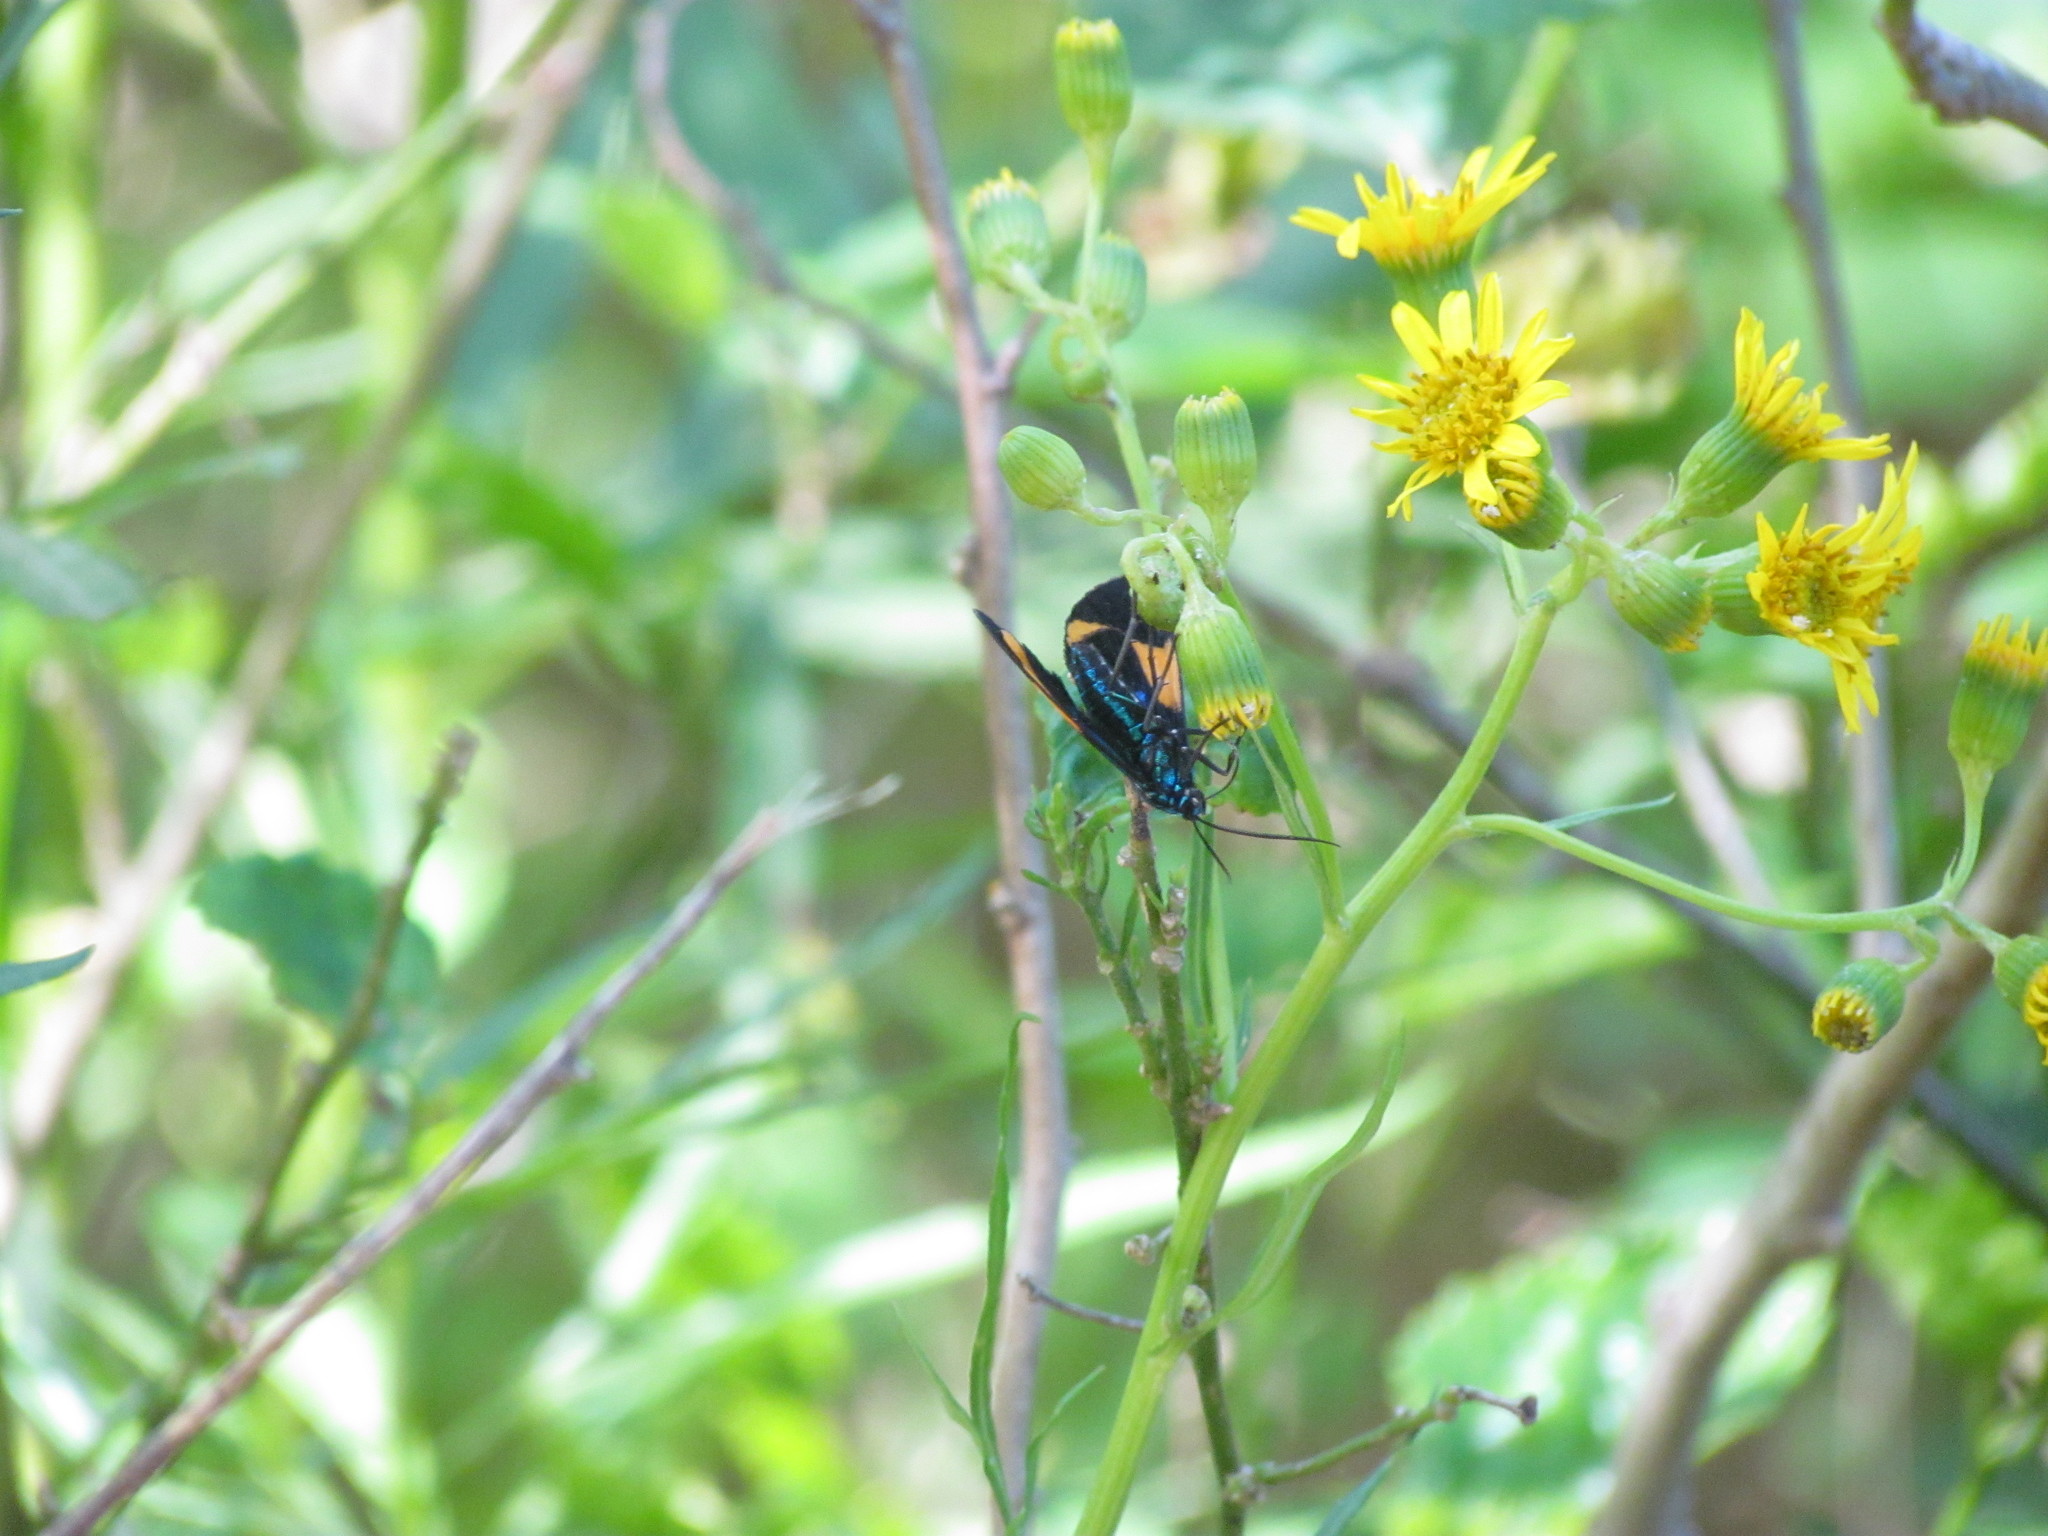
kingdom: Animalia
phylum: Arthropoda
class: Insecta
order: Lepidoptera
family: Erebidae
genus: Cyanopepla
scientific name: Cyanopepla similis
